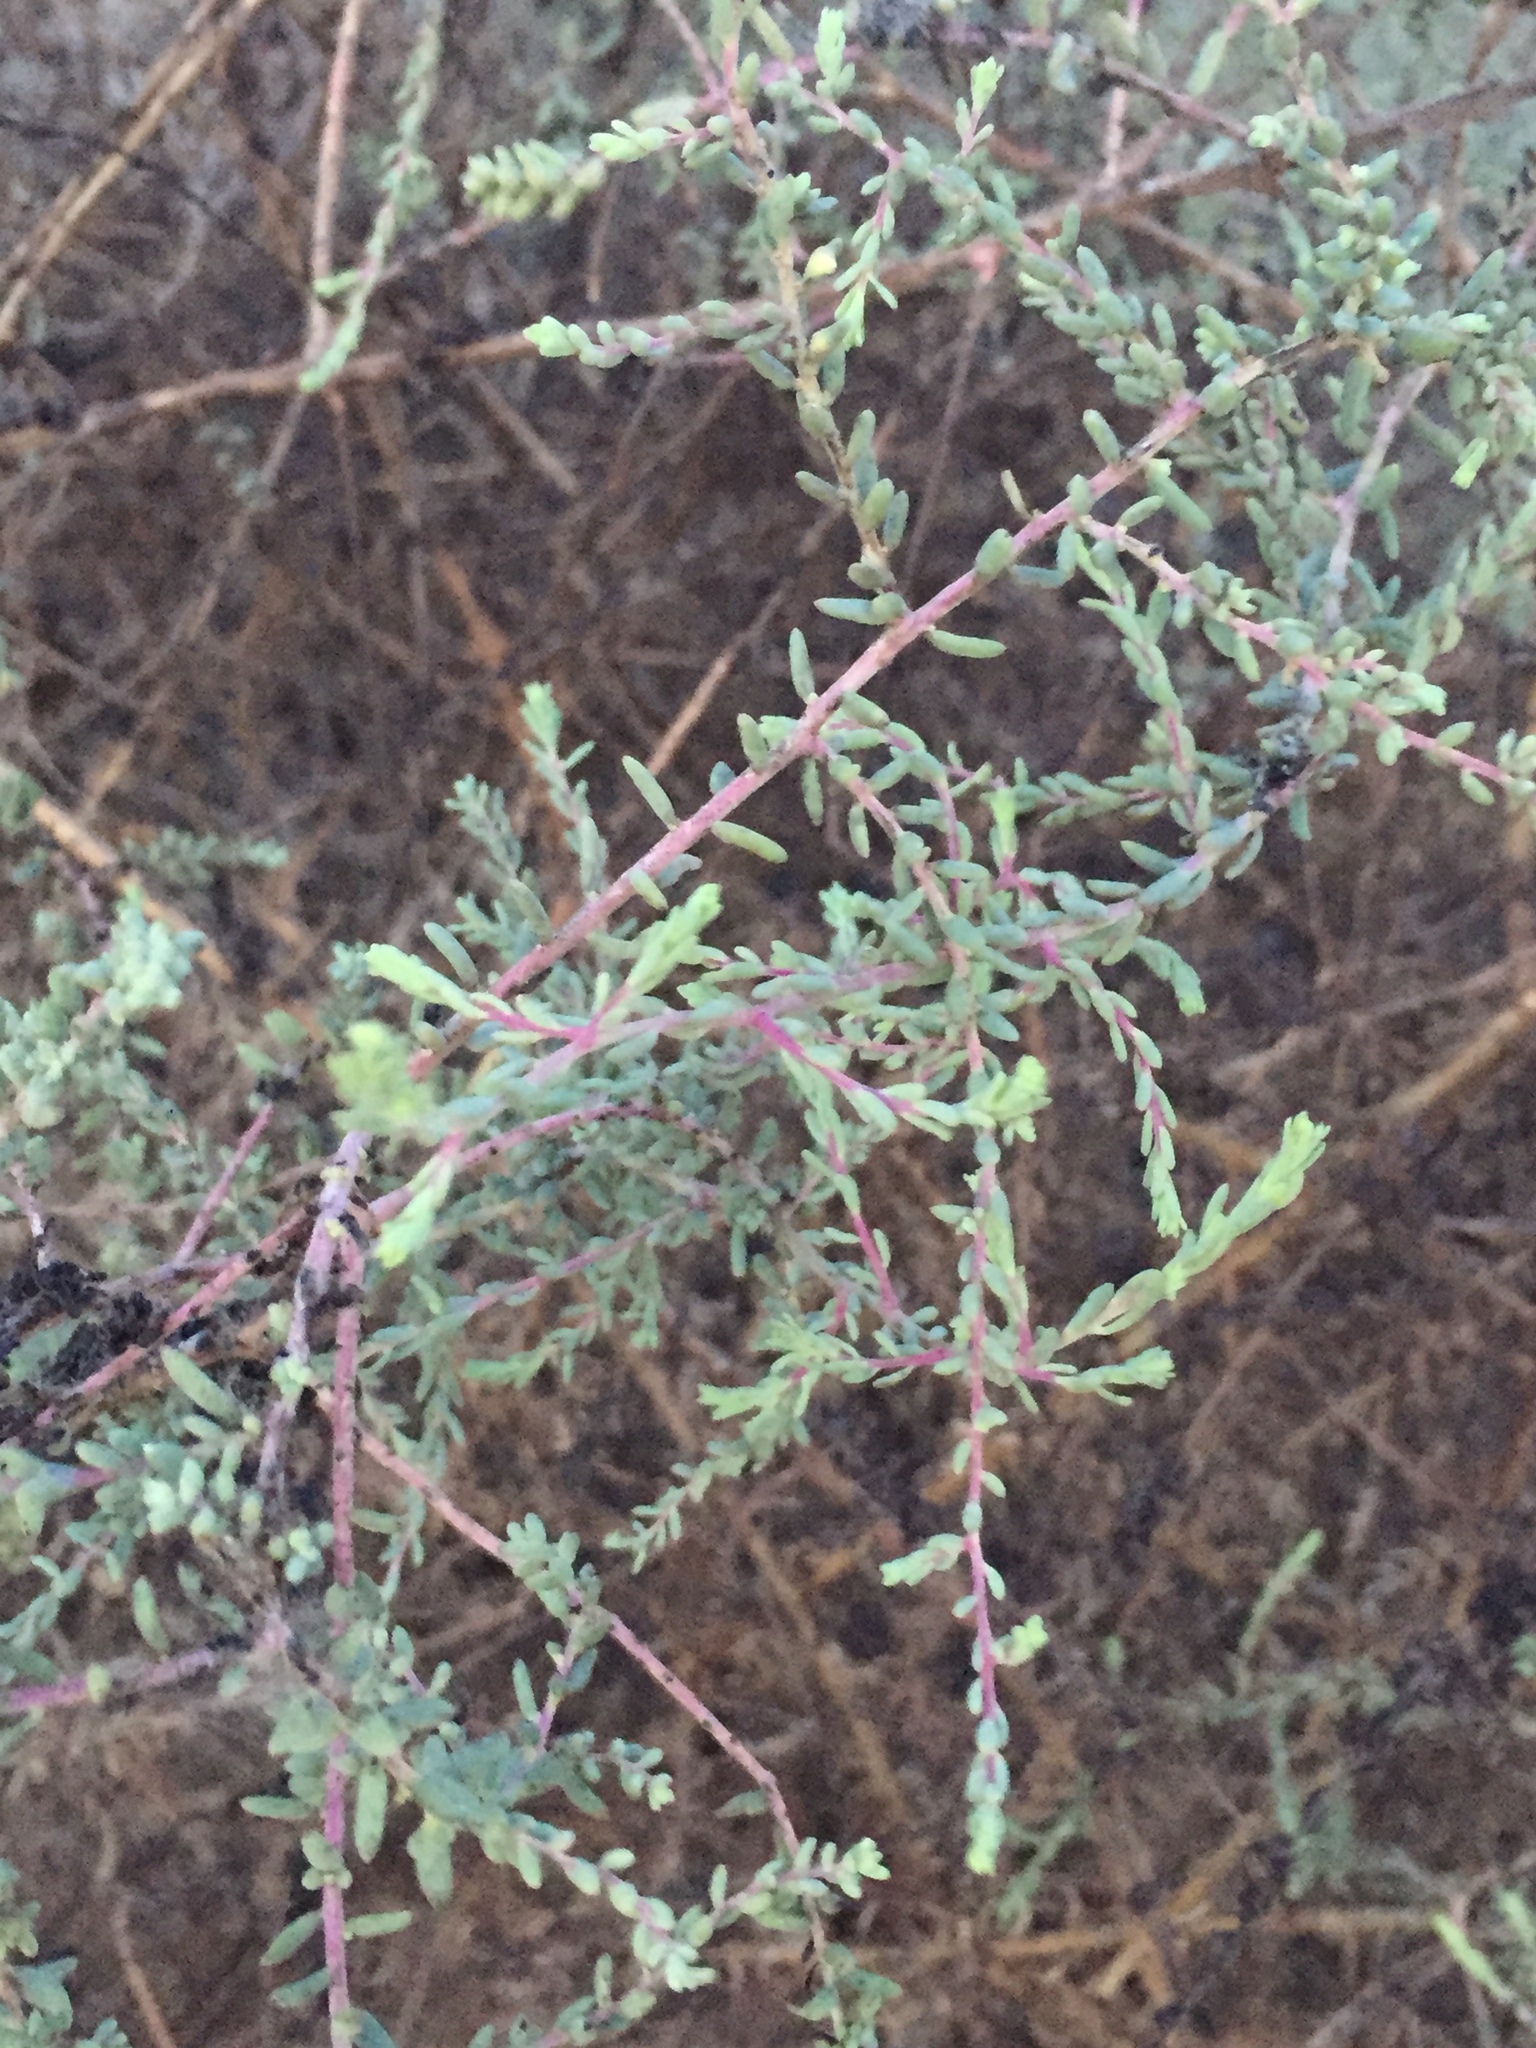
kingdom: Plantae
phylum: Tracheophyta
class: Magnoliopsida
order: Caryophyllales
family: Amaranthaceae
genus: Suaeda
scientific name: Suaeda nigra
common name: Bush seepweed
